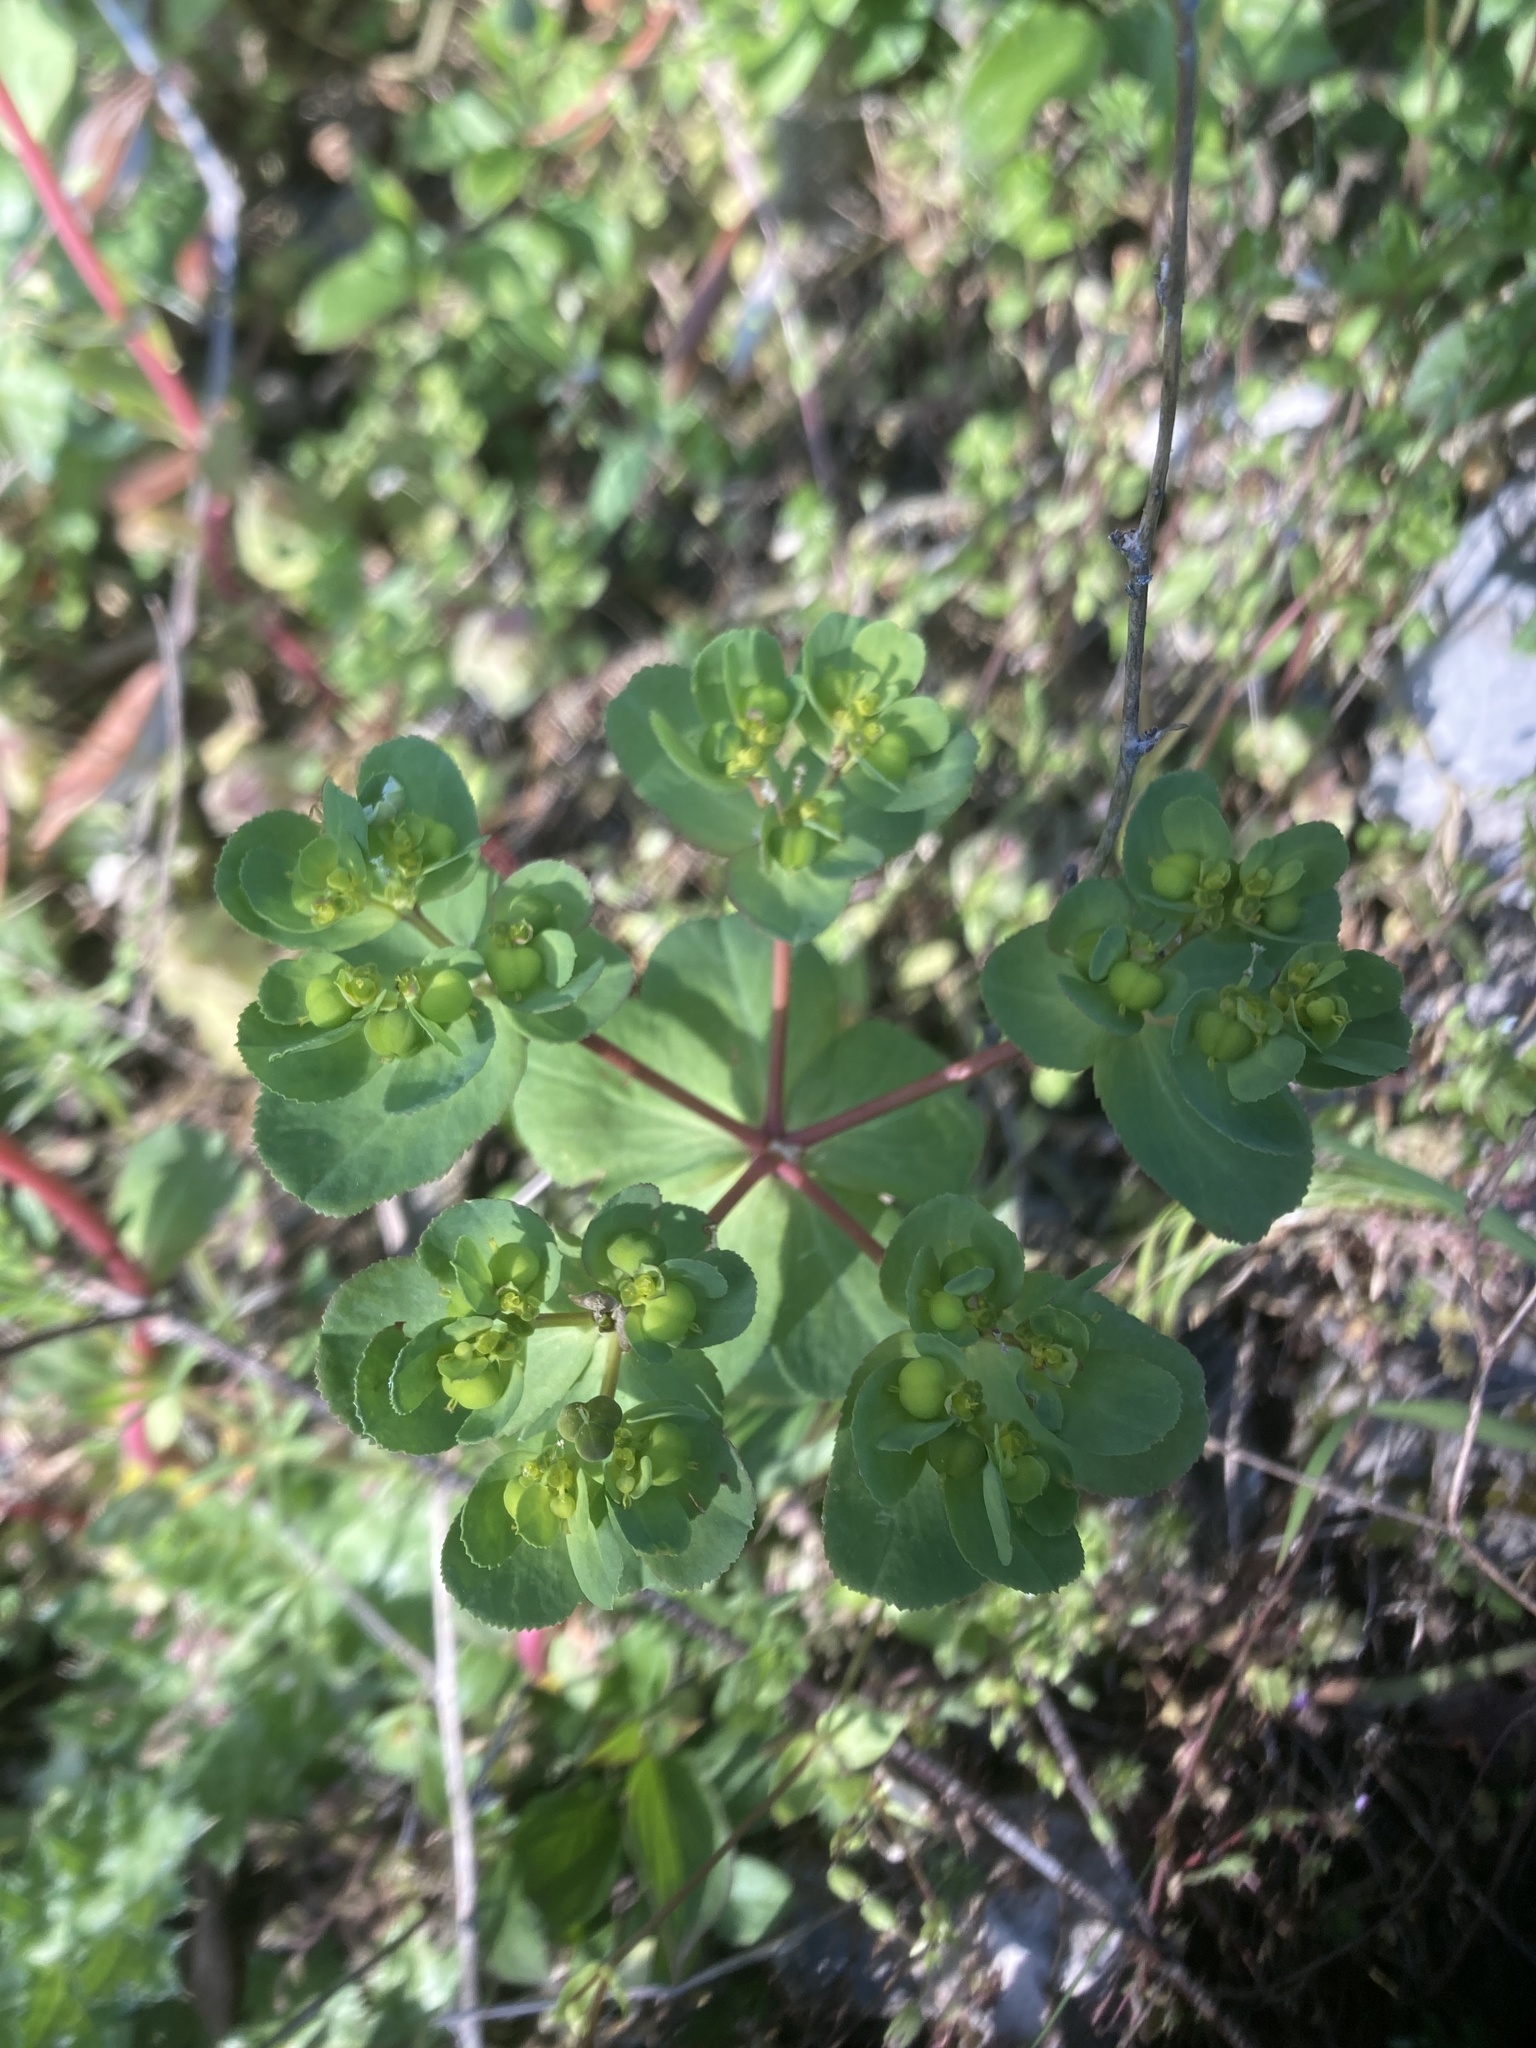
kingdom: Plantae
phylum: Tracheophyta
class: Magnoliopsida
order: Malpighiales
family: Euphorbiaceae
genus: Euphorbia
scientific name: Euphorbia helioscopia
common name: Sun spurge
